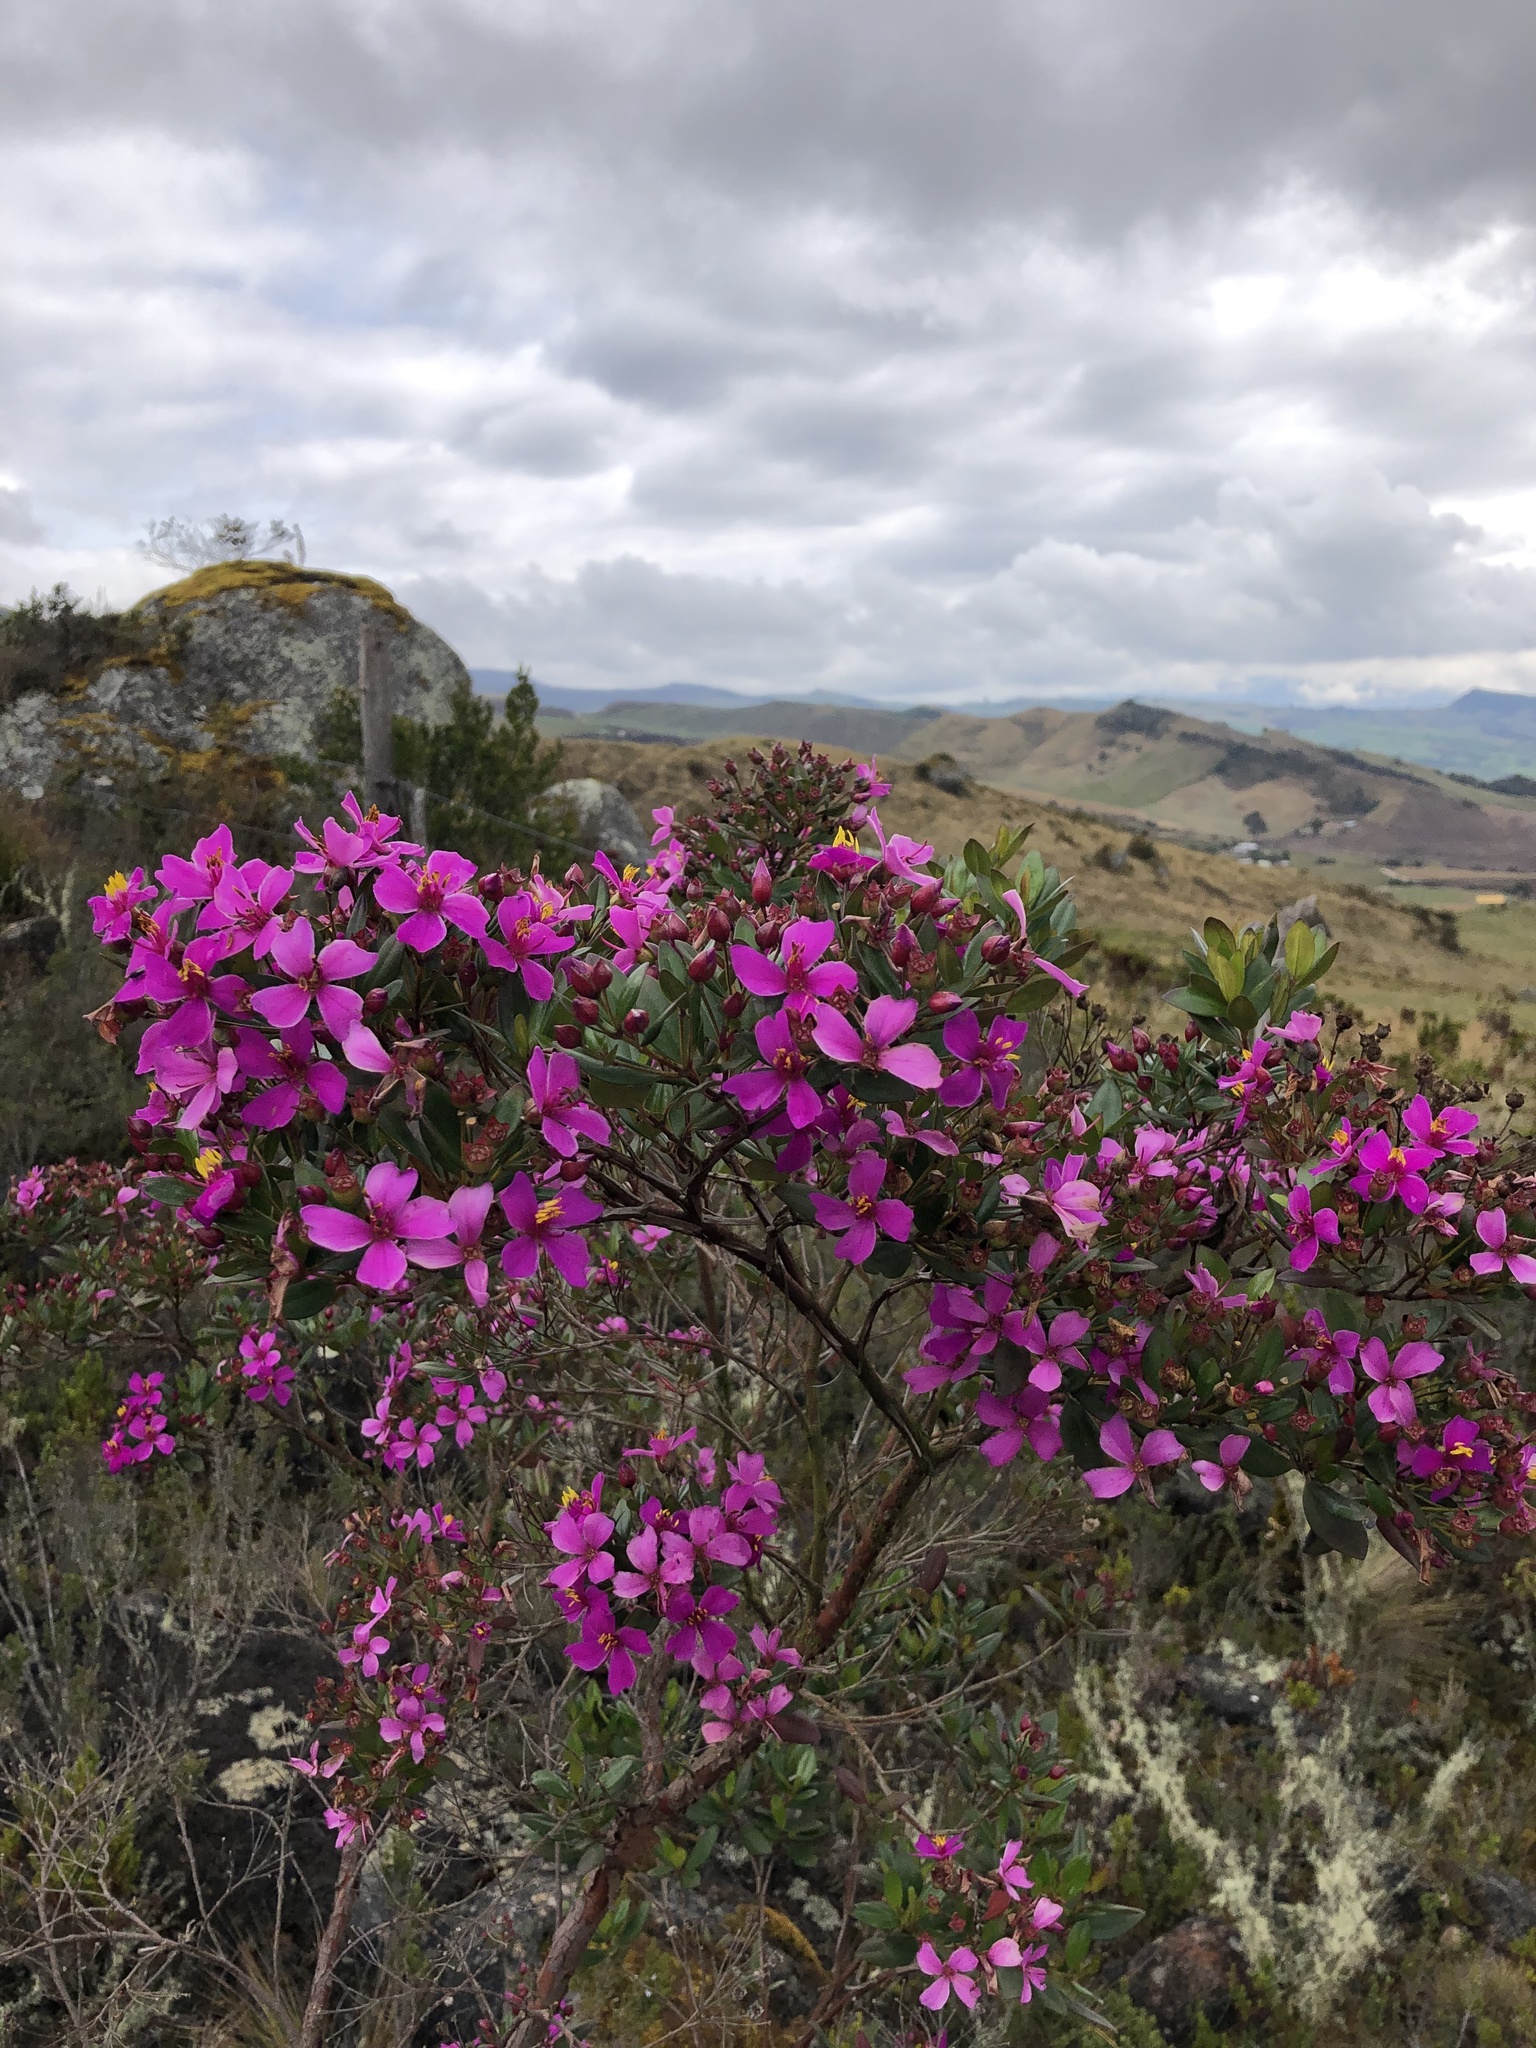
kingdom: Plantae
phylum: Tracheophyta
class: Magnoliopsida
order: Myrtales
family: Melastomataceae
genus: Bucquetia
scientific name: Bucquetia glutinosa
